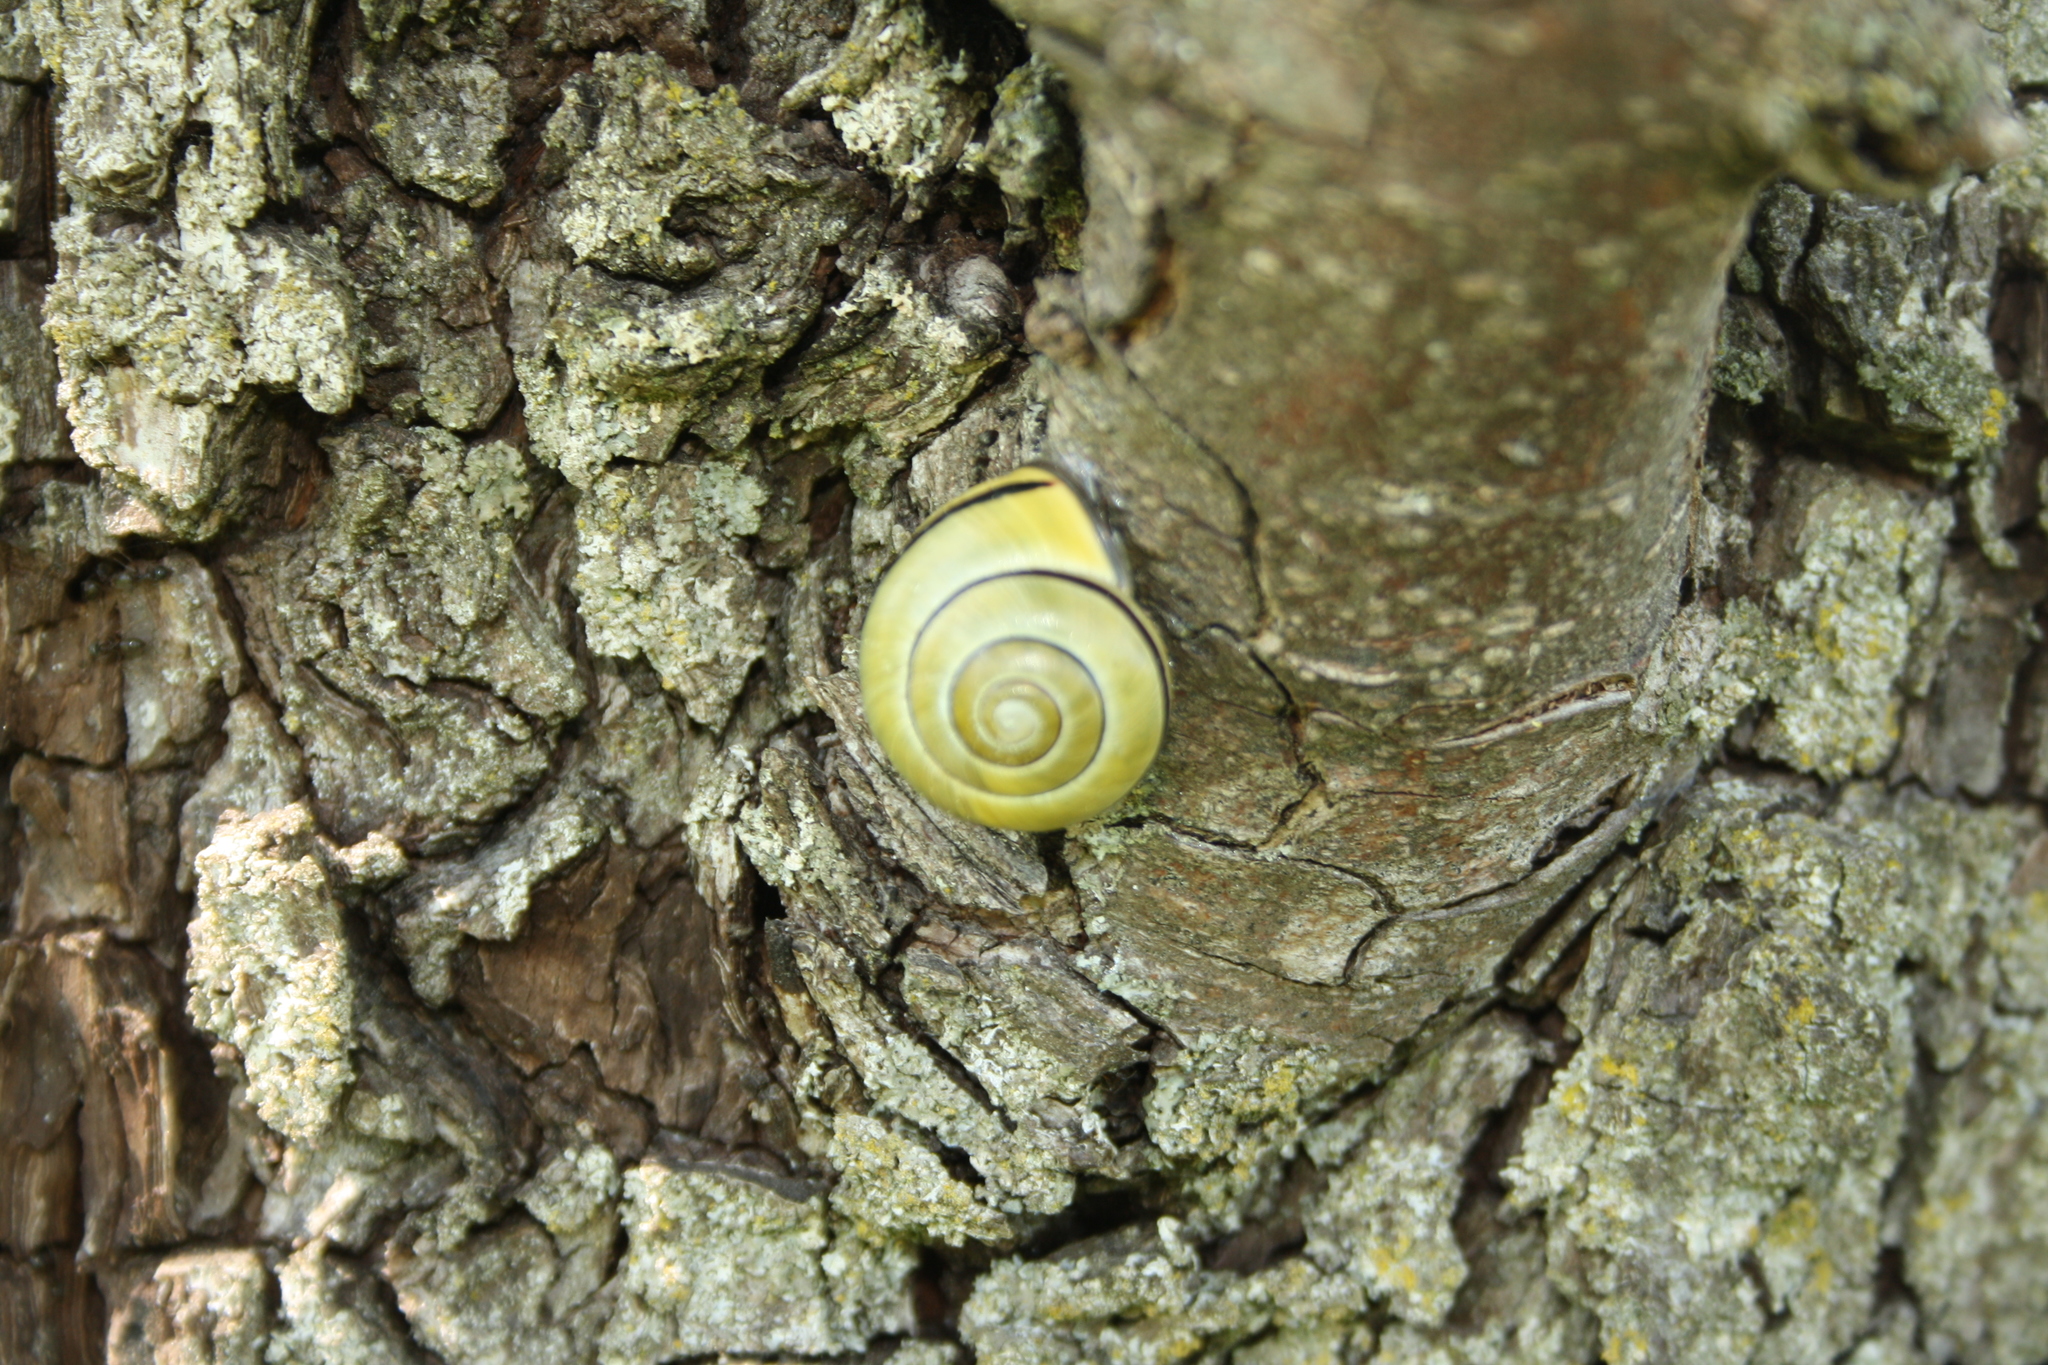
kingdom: Animalia
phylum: Mollusca
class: Gastropoda
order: Stylommatophora
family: Helicidae
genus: Cepaea
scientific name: Cepaea nemoralis
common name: Grovesnail
